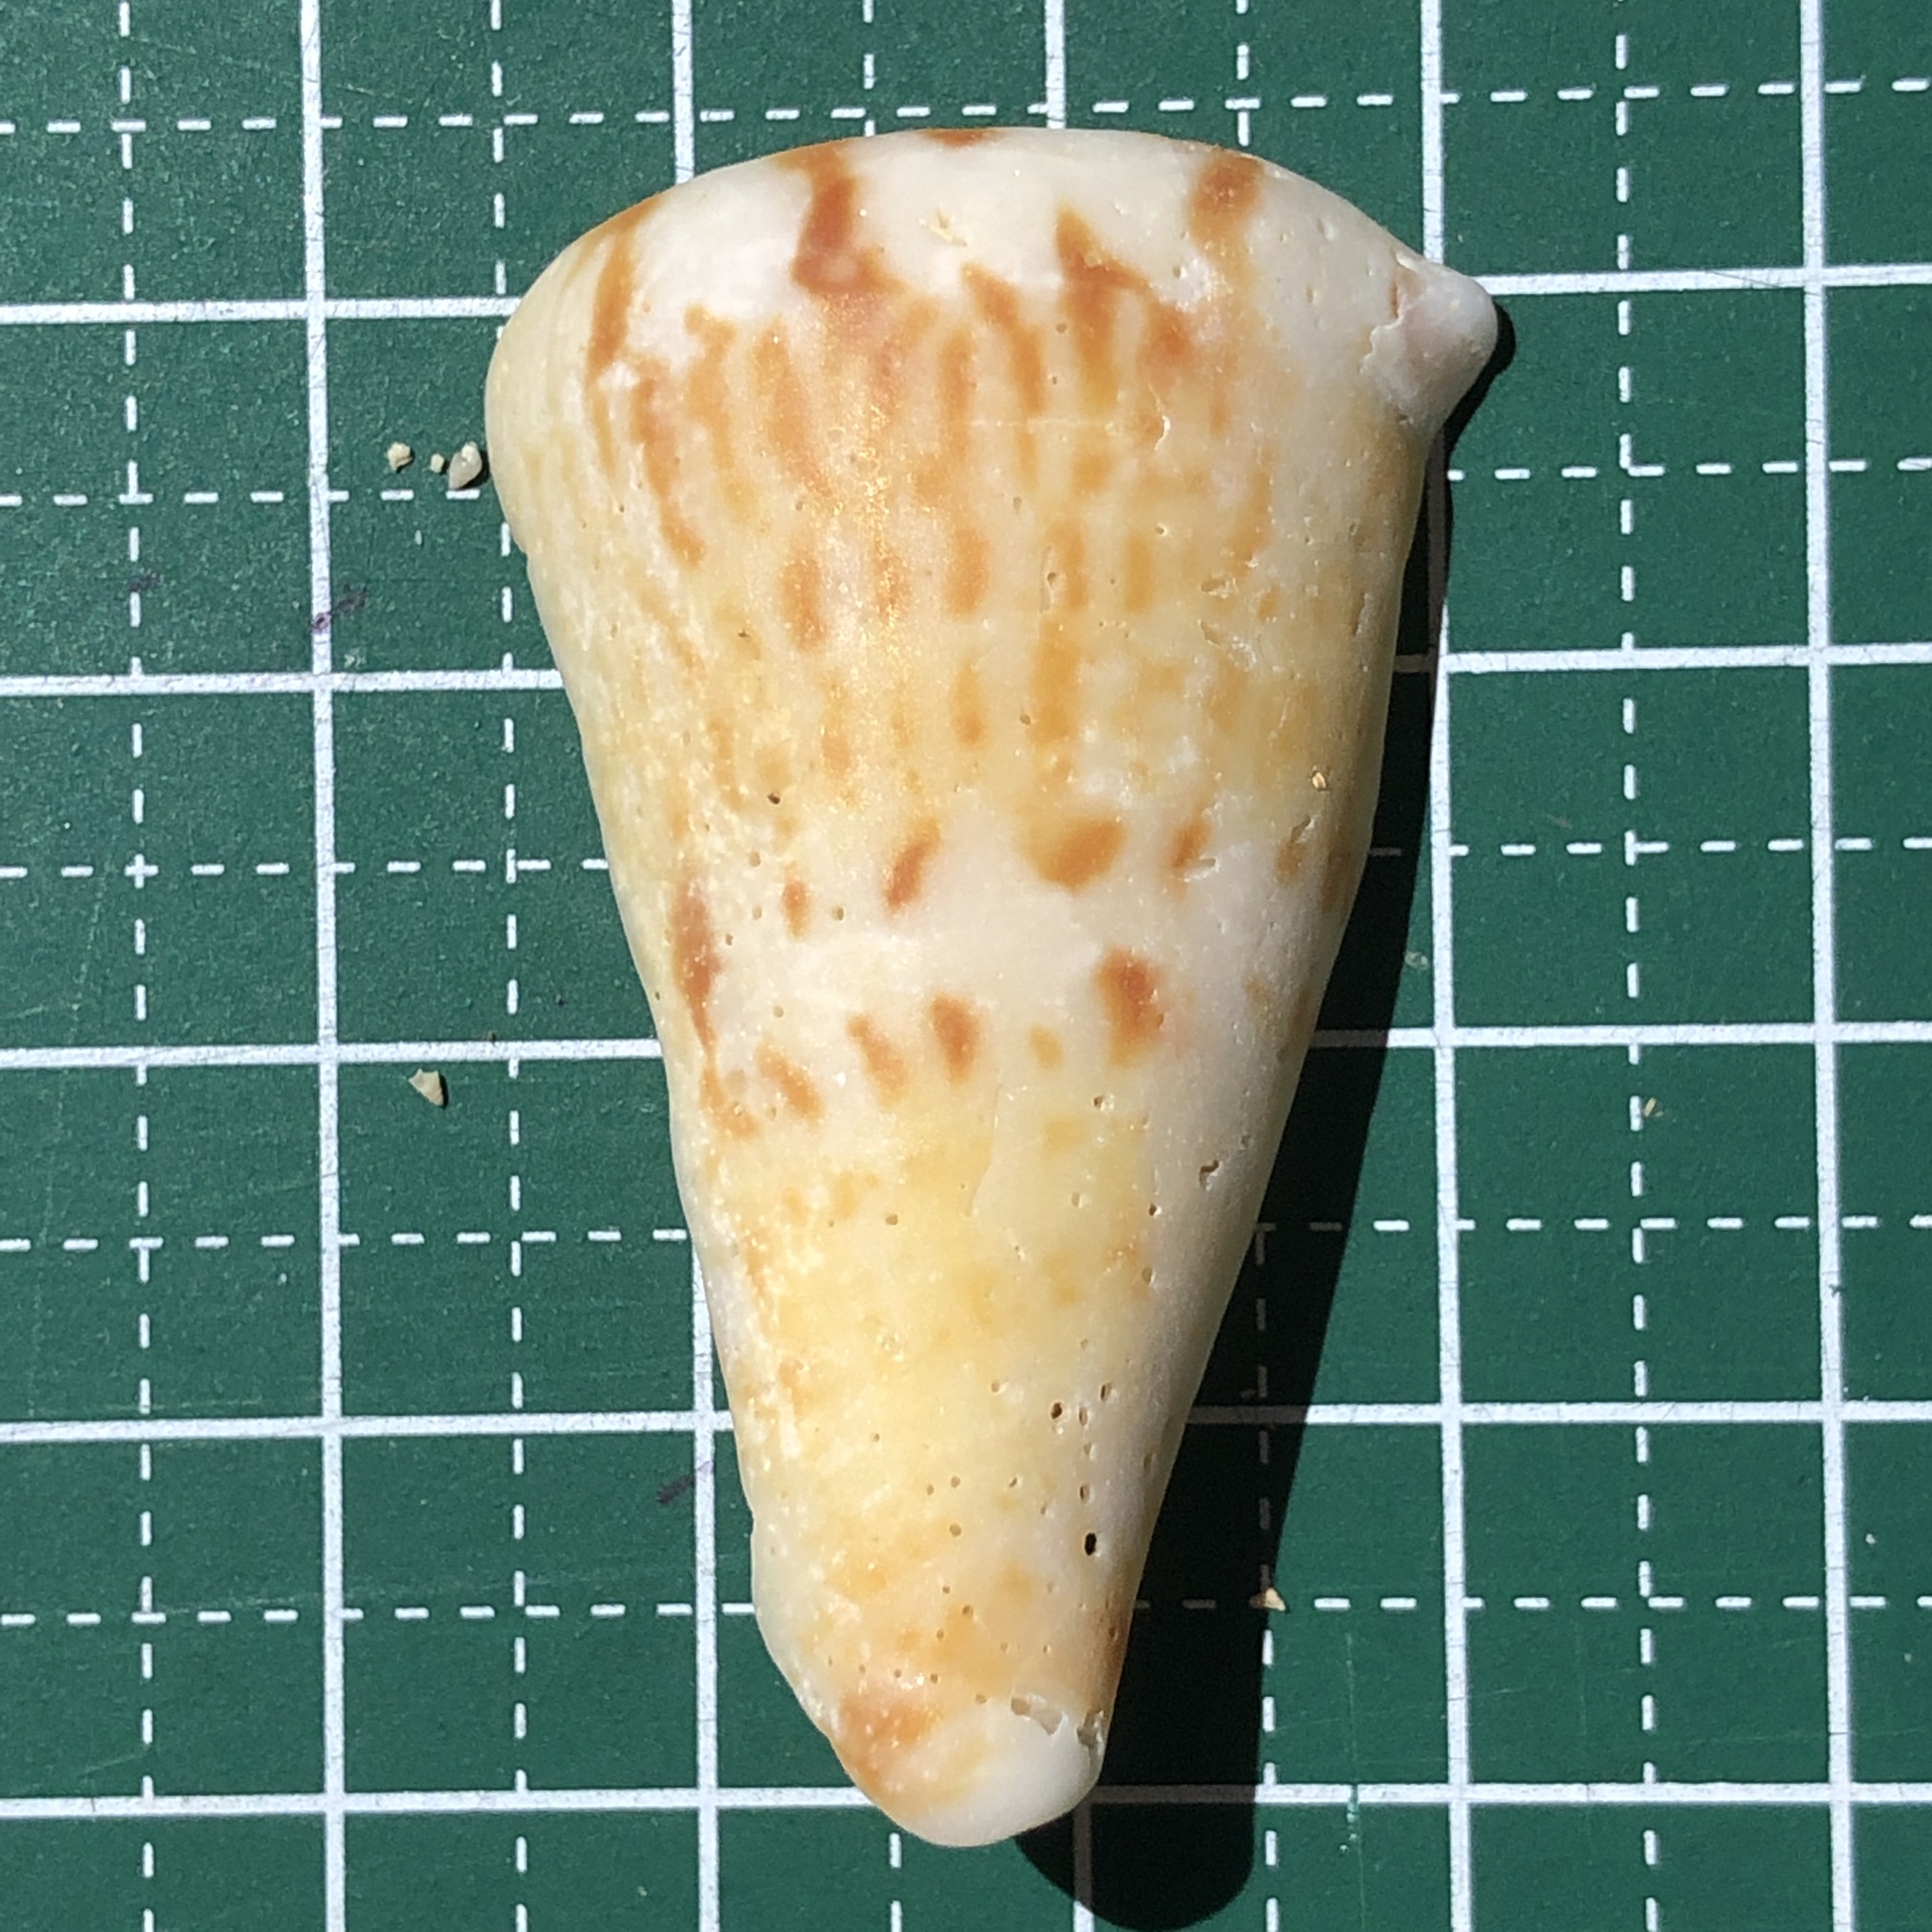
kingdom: Animalia
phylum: Mollusca
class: Gastropoda
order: Neogastropoda
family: Conidae
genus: Conus
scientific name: Conus capitaneus
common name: Captain cone
